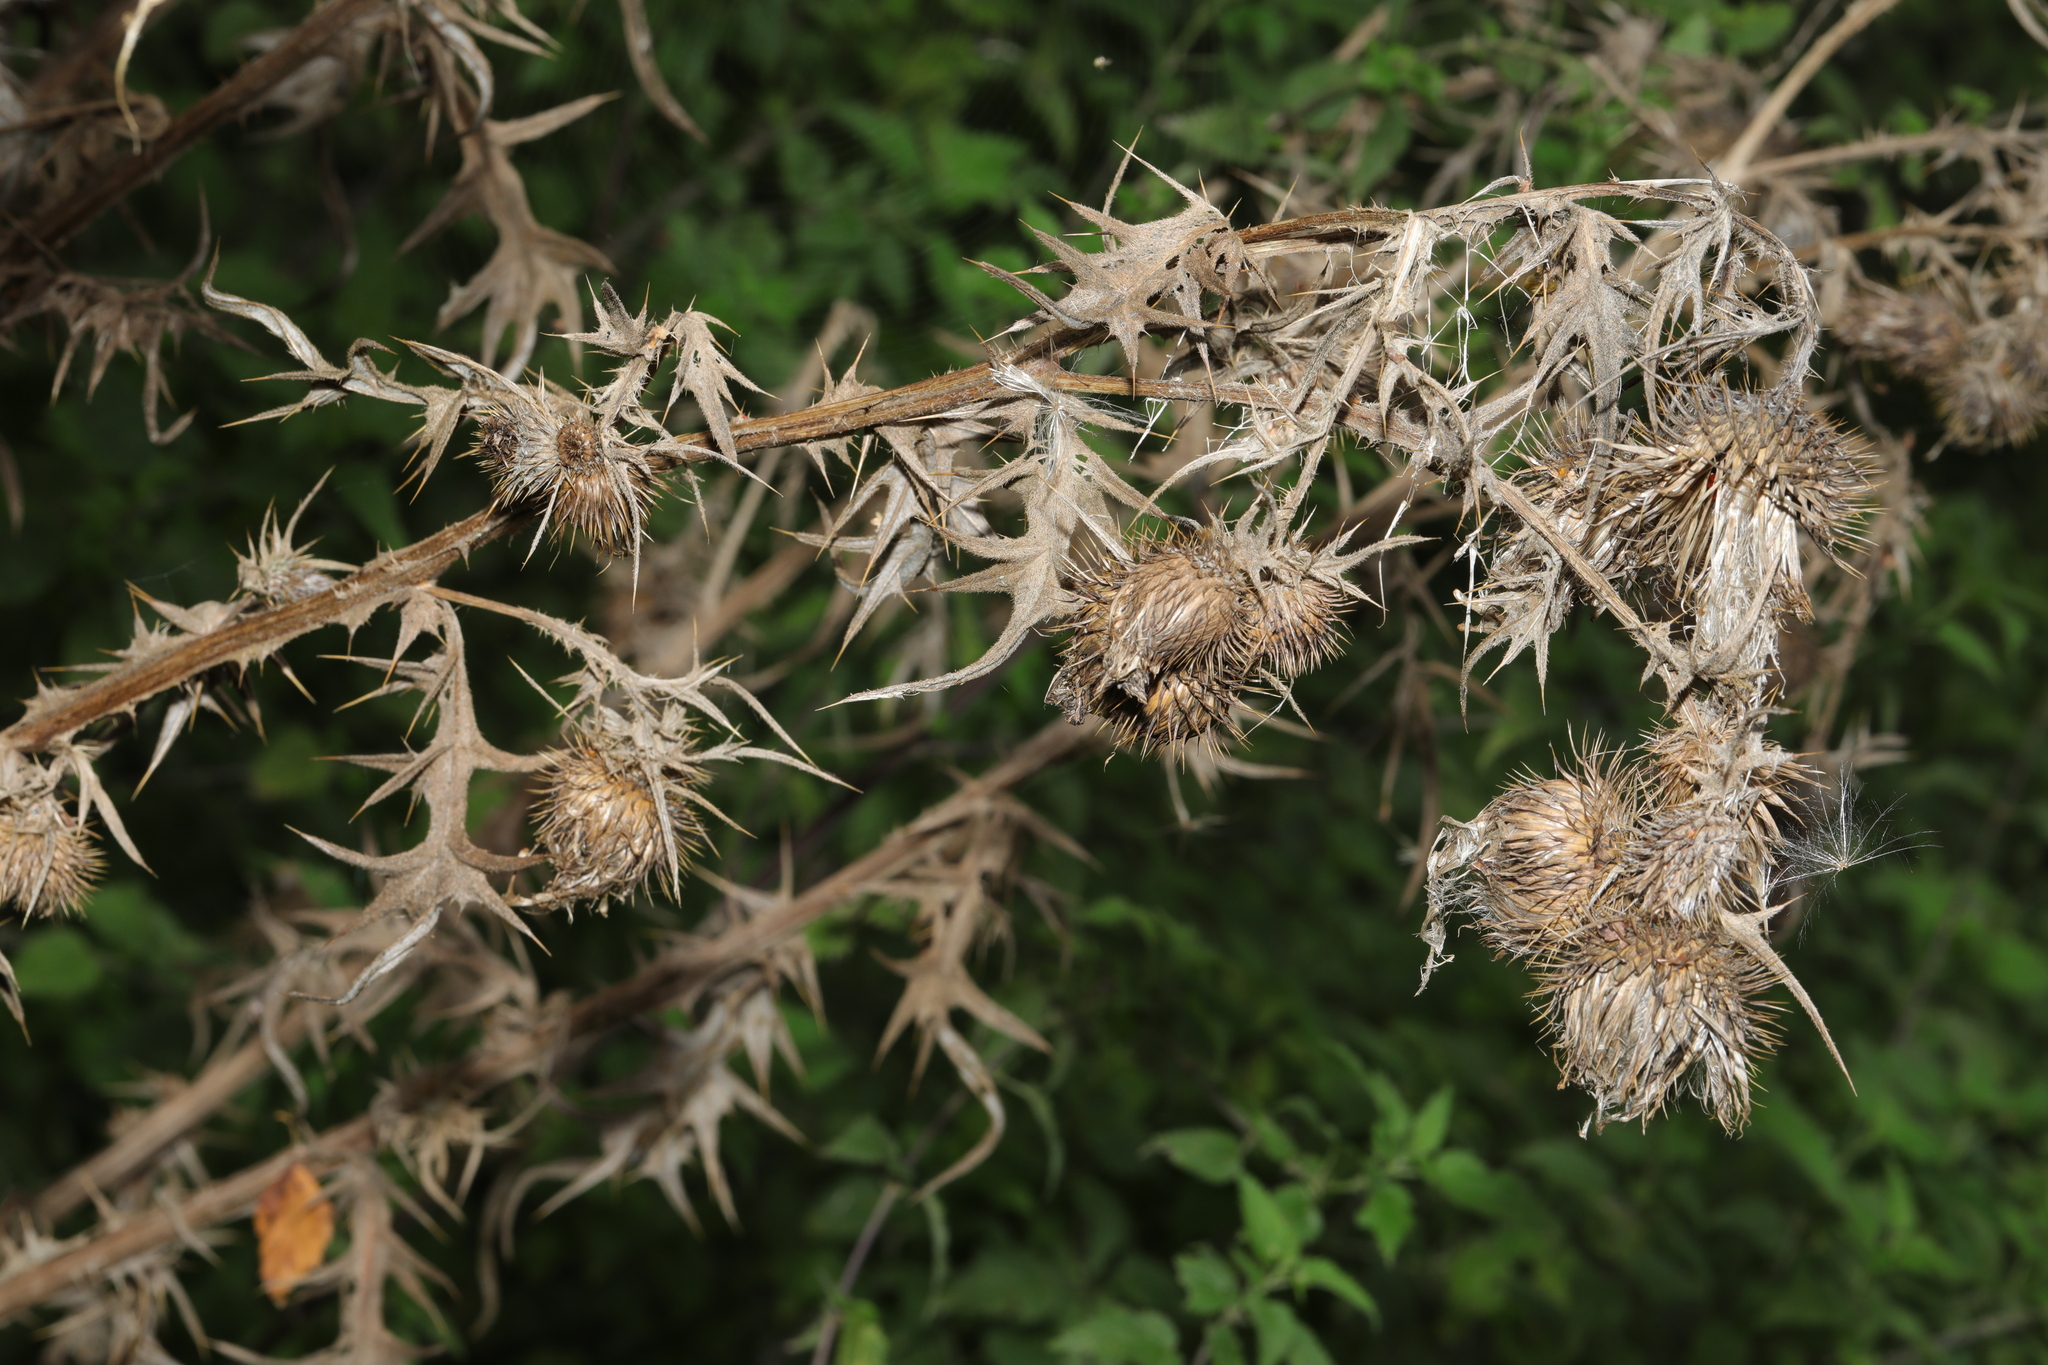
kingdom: Plantae
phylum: Tracheophyta
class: Magnoliopsida
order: Asterales
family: Asteraceae
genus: Cirsium
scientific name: Cirsium vulgare
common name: Bull thistle
